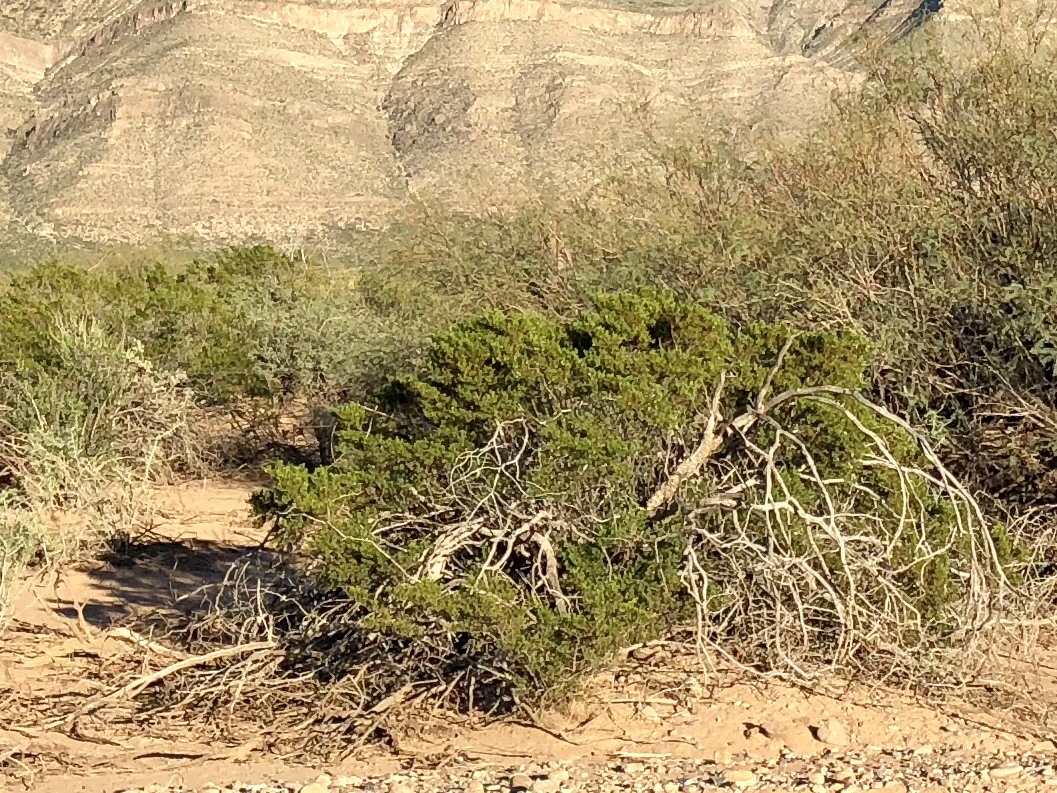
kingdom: Plantae
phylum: Tracheophyta
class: Magnoliopsida
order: Zygophyllales
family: Zygophyllaceae
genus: Larrea
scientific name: Larrea tridentata
